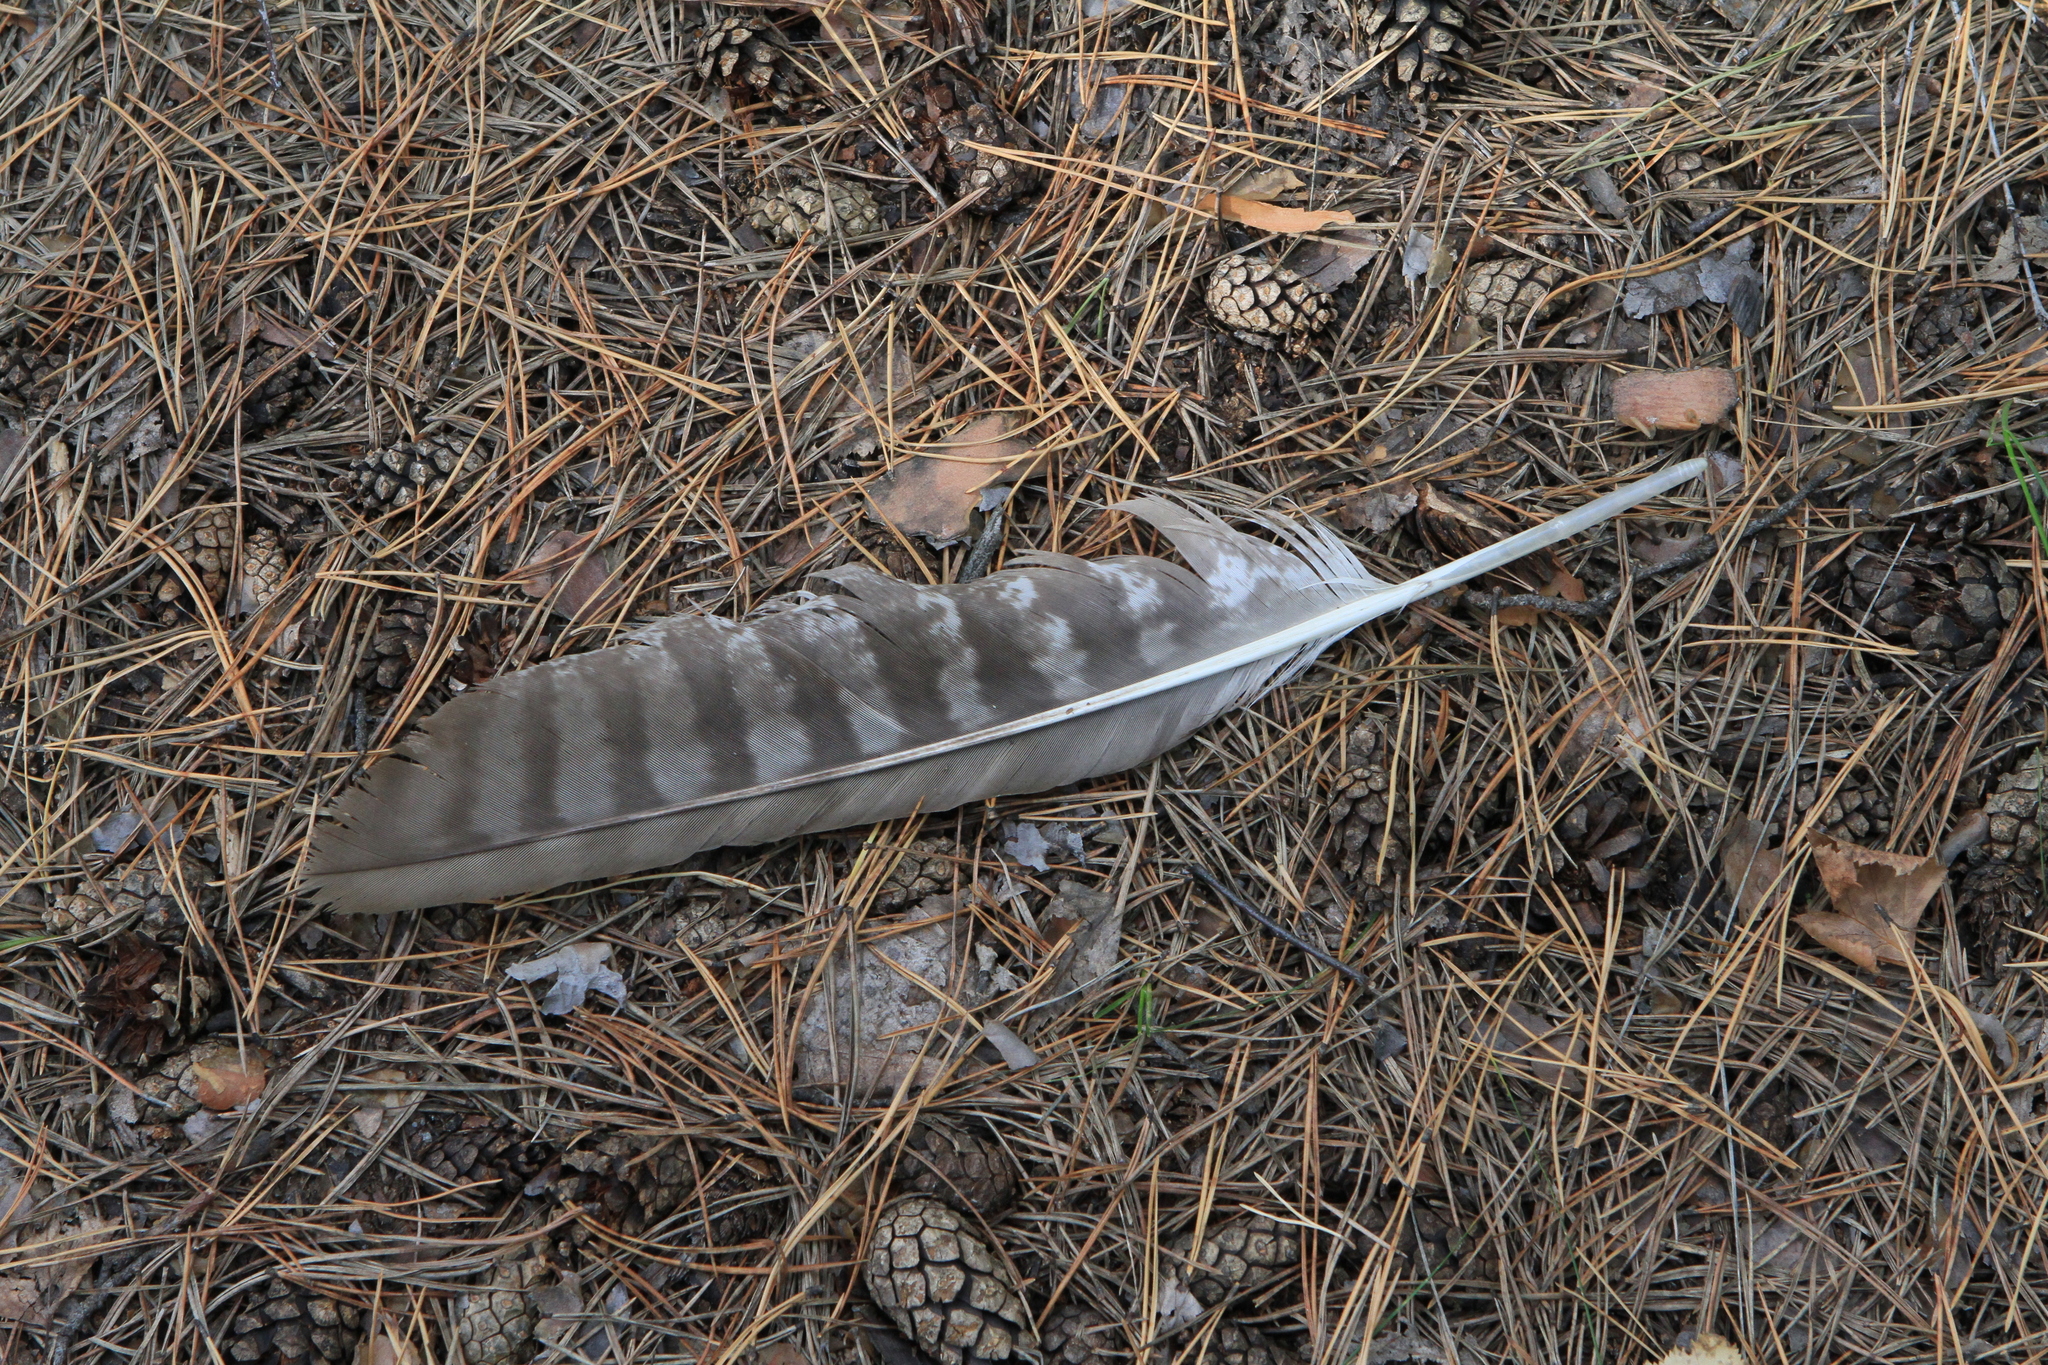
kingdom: Animalia
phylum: Chordata
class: Aves
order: Accipitriformes
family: Accipitridae
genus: Milvus
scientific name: Milvus migrans
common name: Black kite
